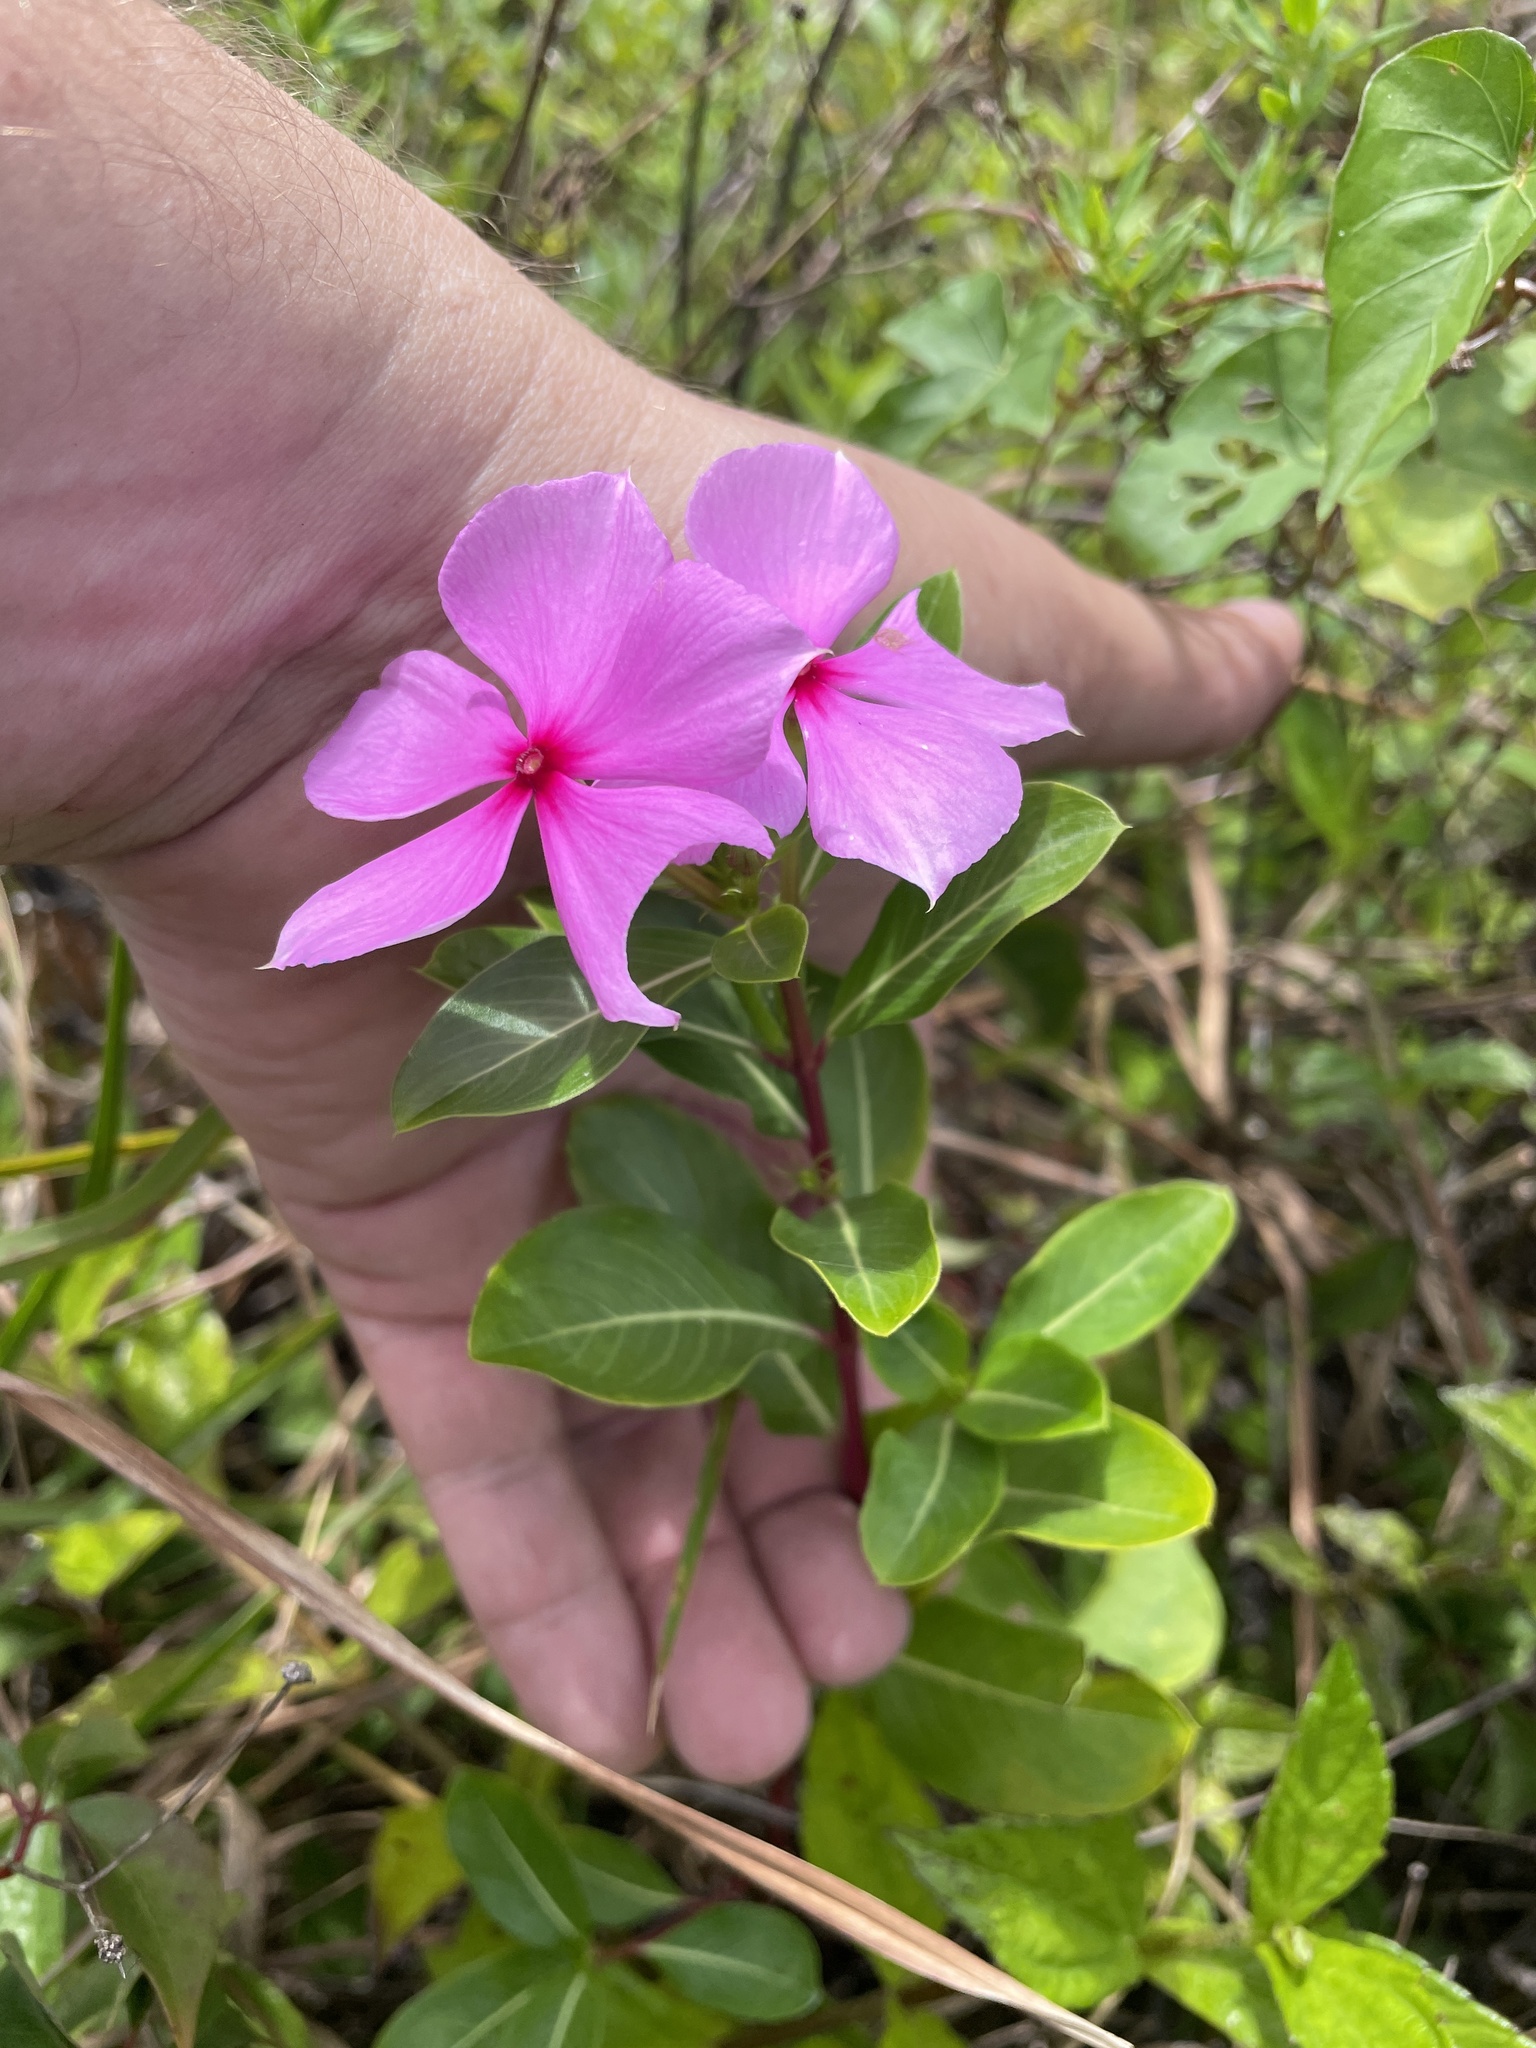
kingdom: Plantae
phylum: Tracheophyta
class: Magnoliopsida
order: Gentianales
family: Apocynaceae
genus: Catharanthus
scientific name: Catharanthus roseus
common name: Madagascar periwinkle
